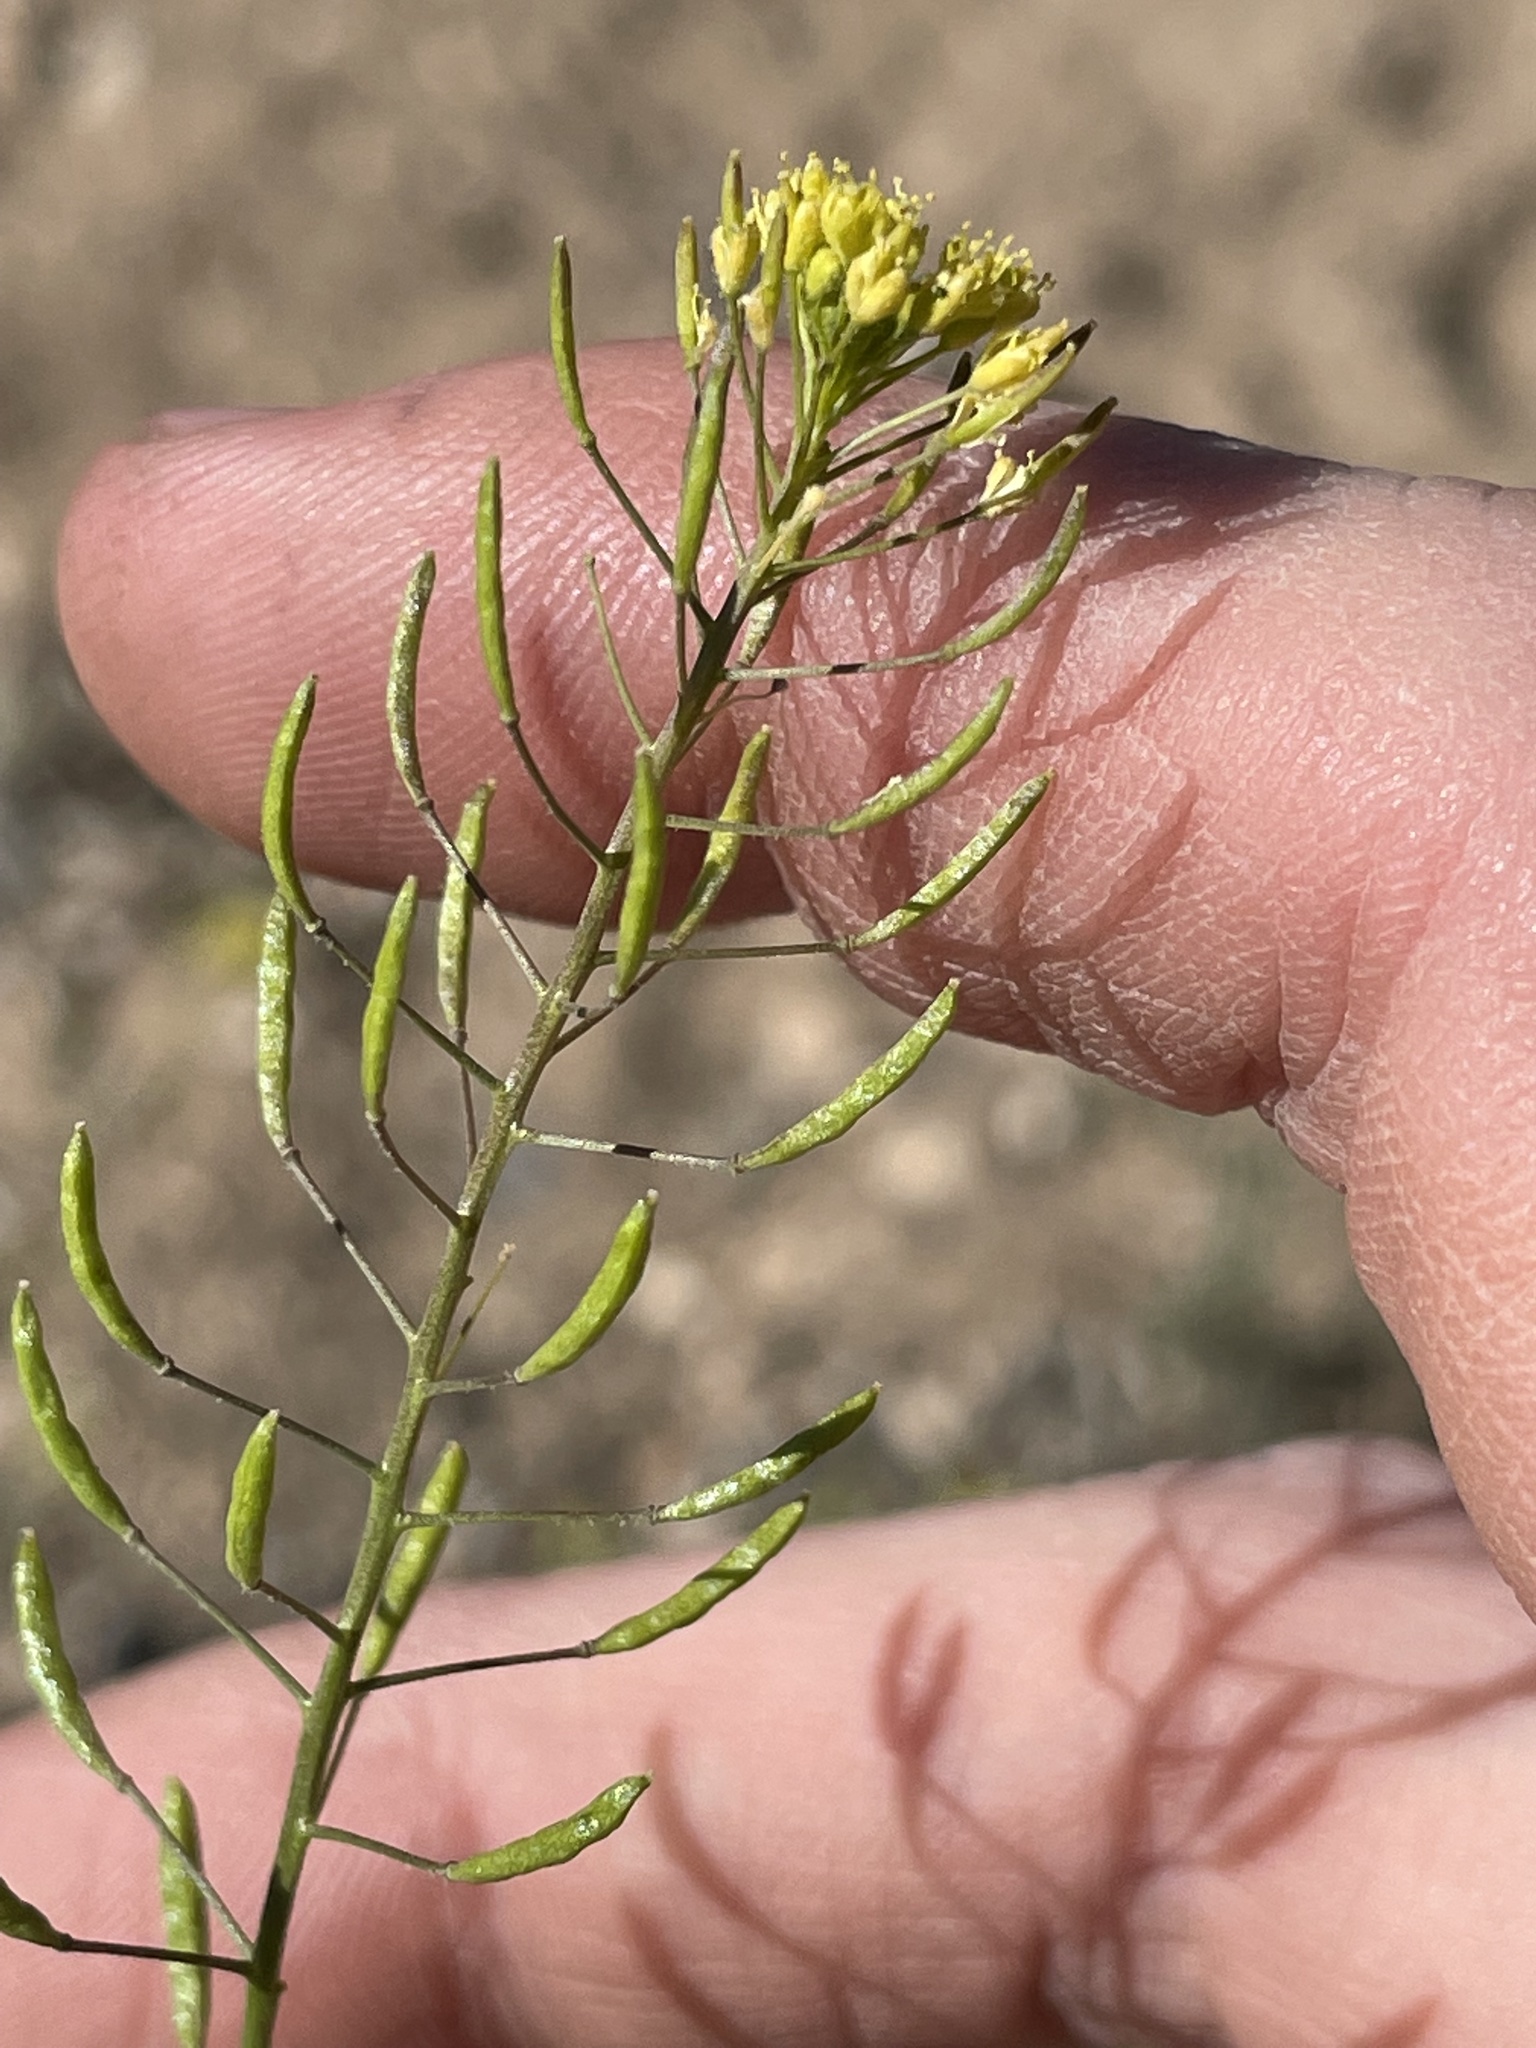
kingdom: Plantae
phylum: Tracheophyta
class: Magnoliopsida
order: Brassicales
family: Brassicaceae
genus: Descurainia
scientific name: Descurainia pinnata
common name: Western tansy mustard
